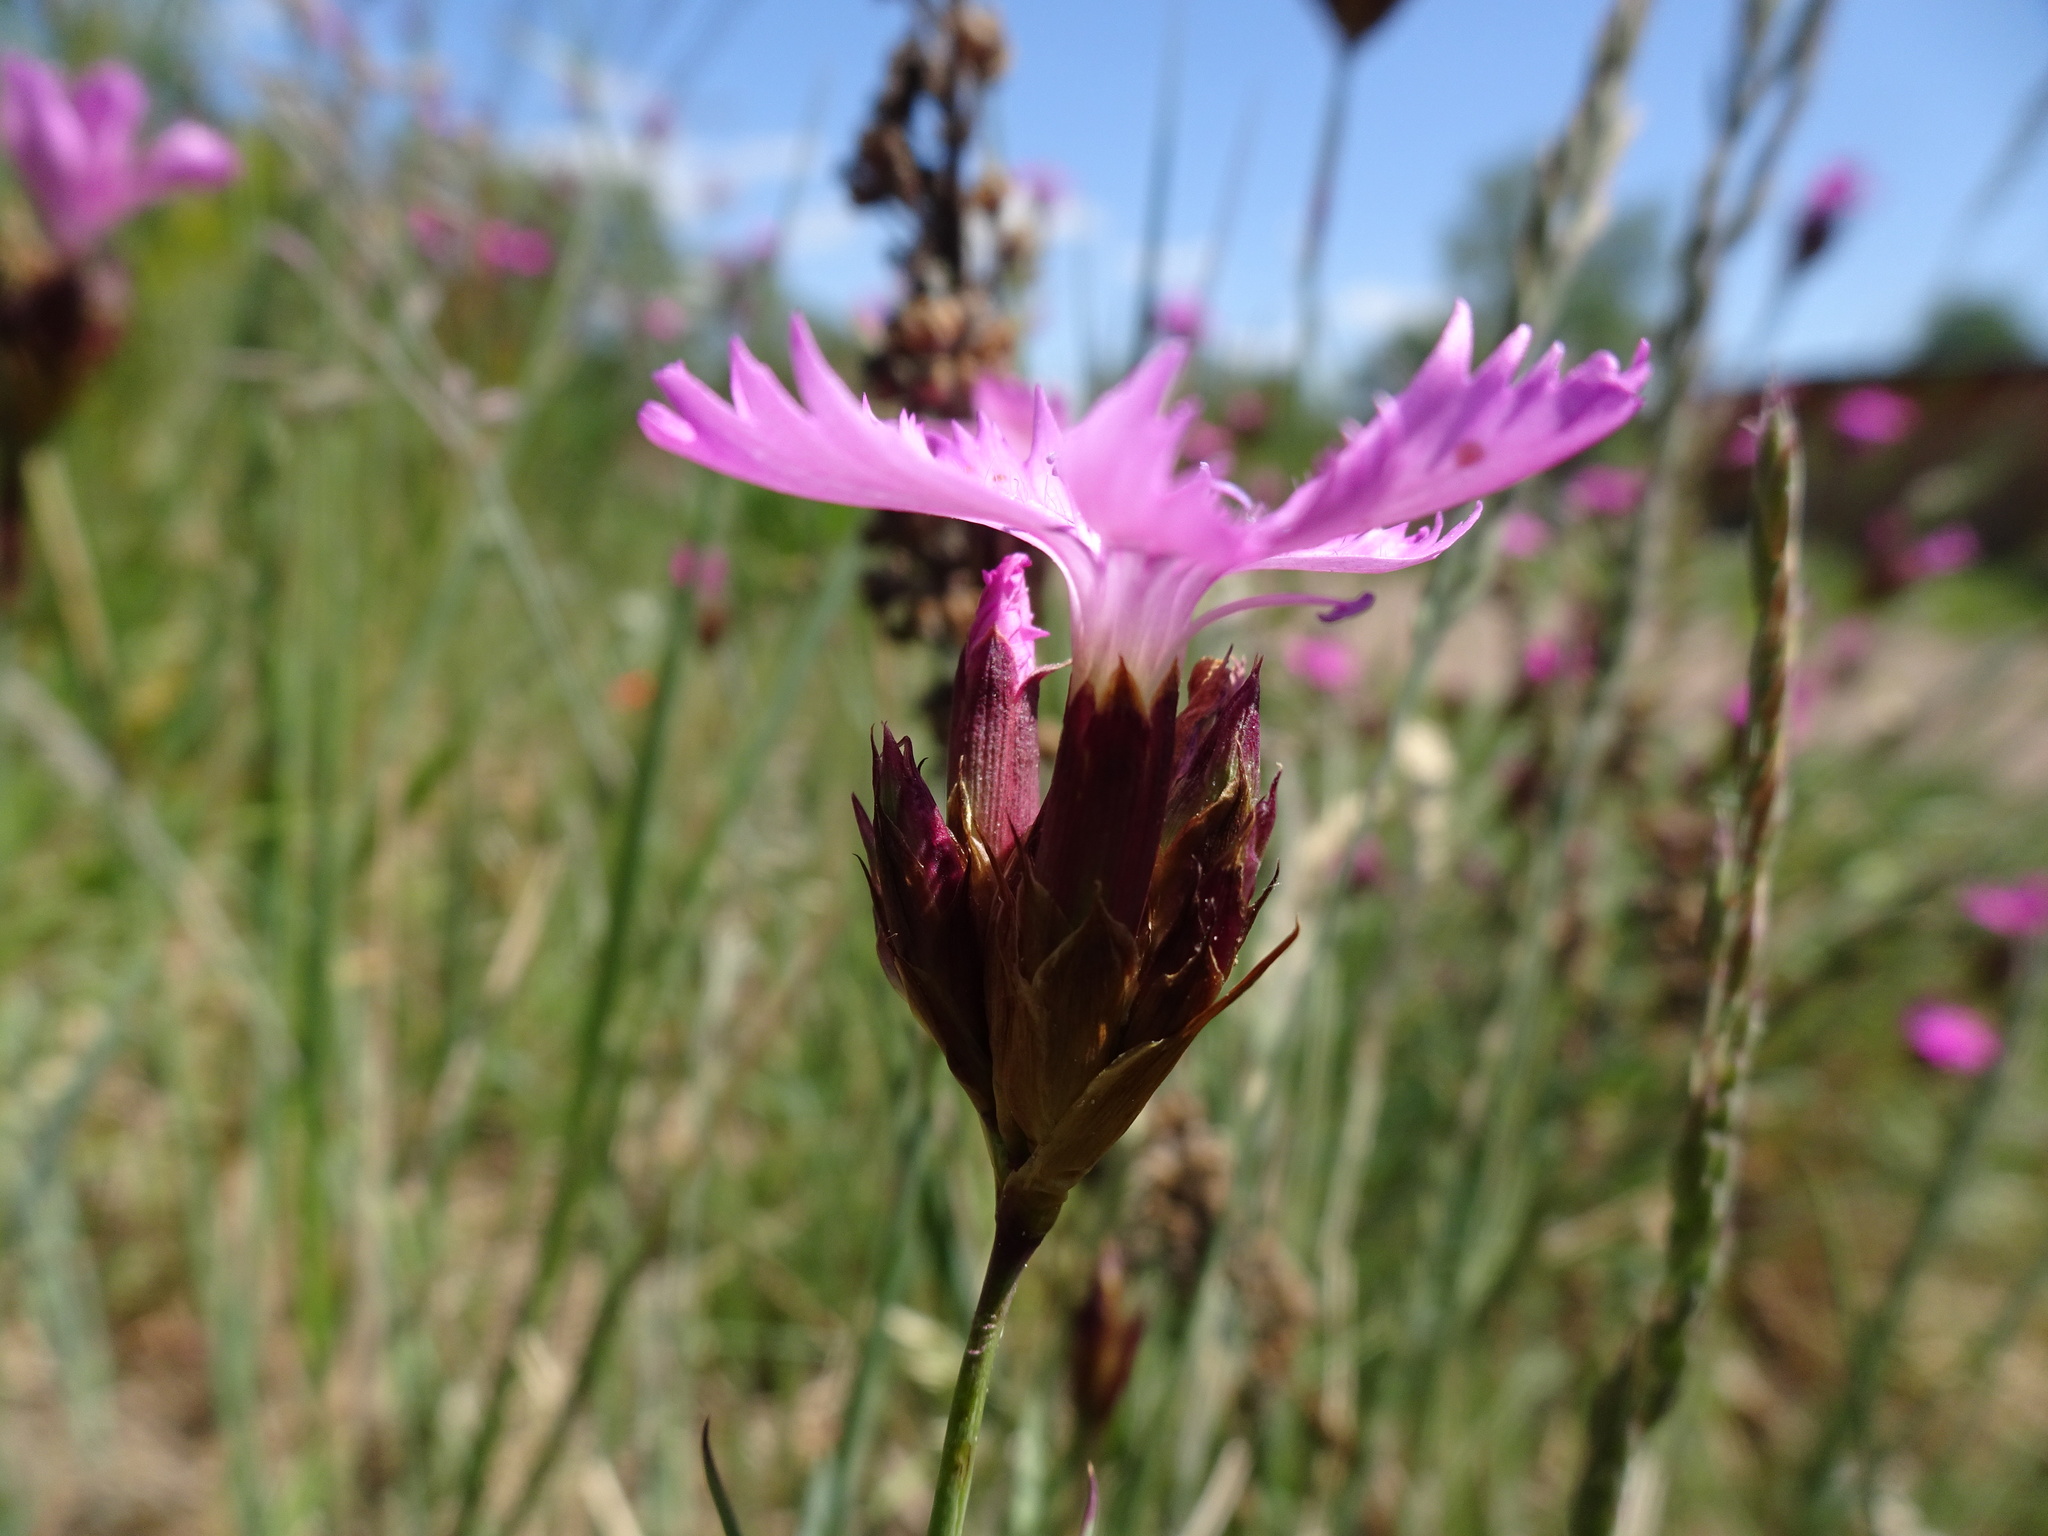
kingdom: Plantae
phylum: Tracheophyta
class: Magnoliopsida
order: Caryophyllales
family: Caryophyllaceae
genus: Dianthus
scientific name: Dianthus carthusianorum
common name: Carthusian pink
